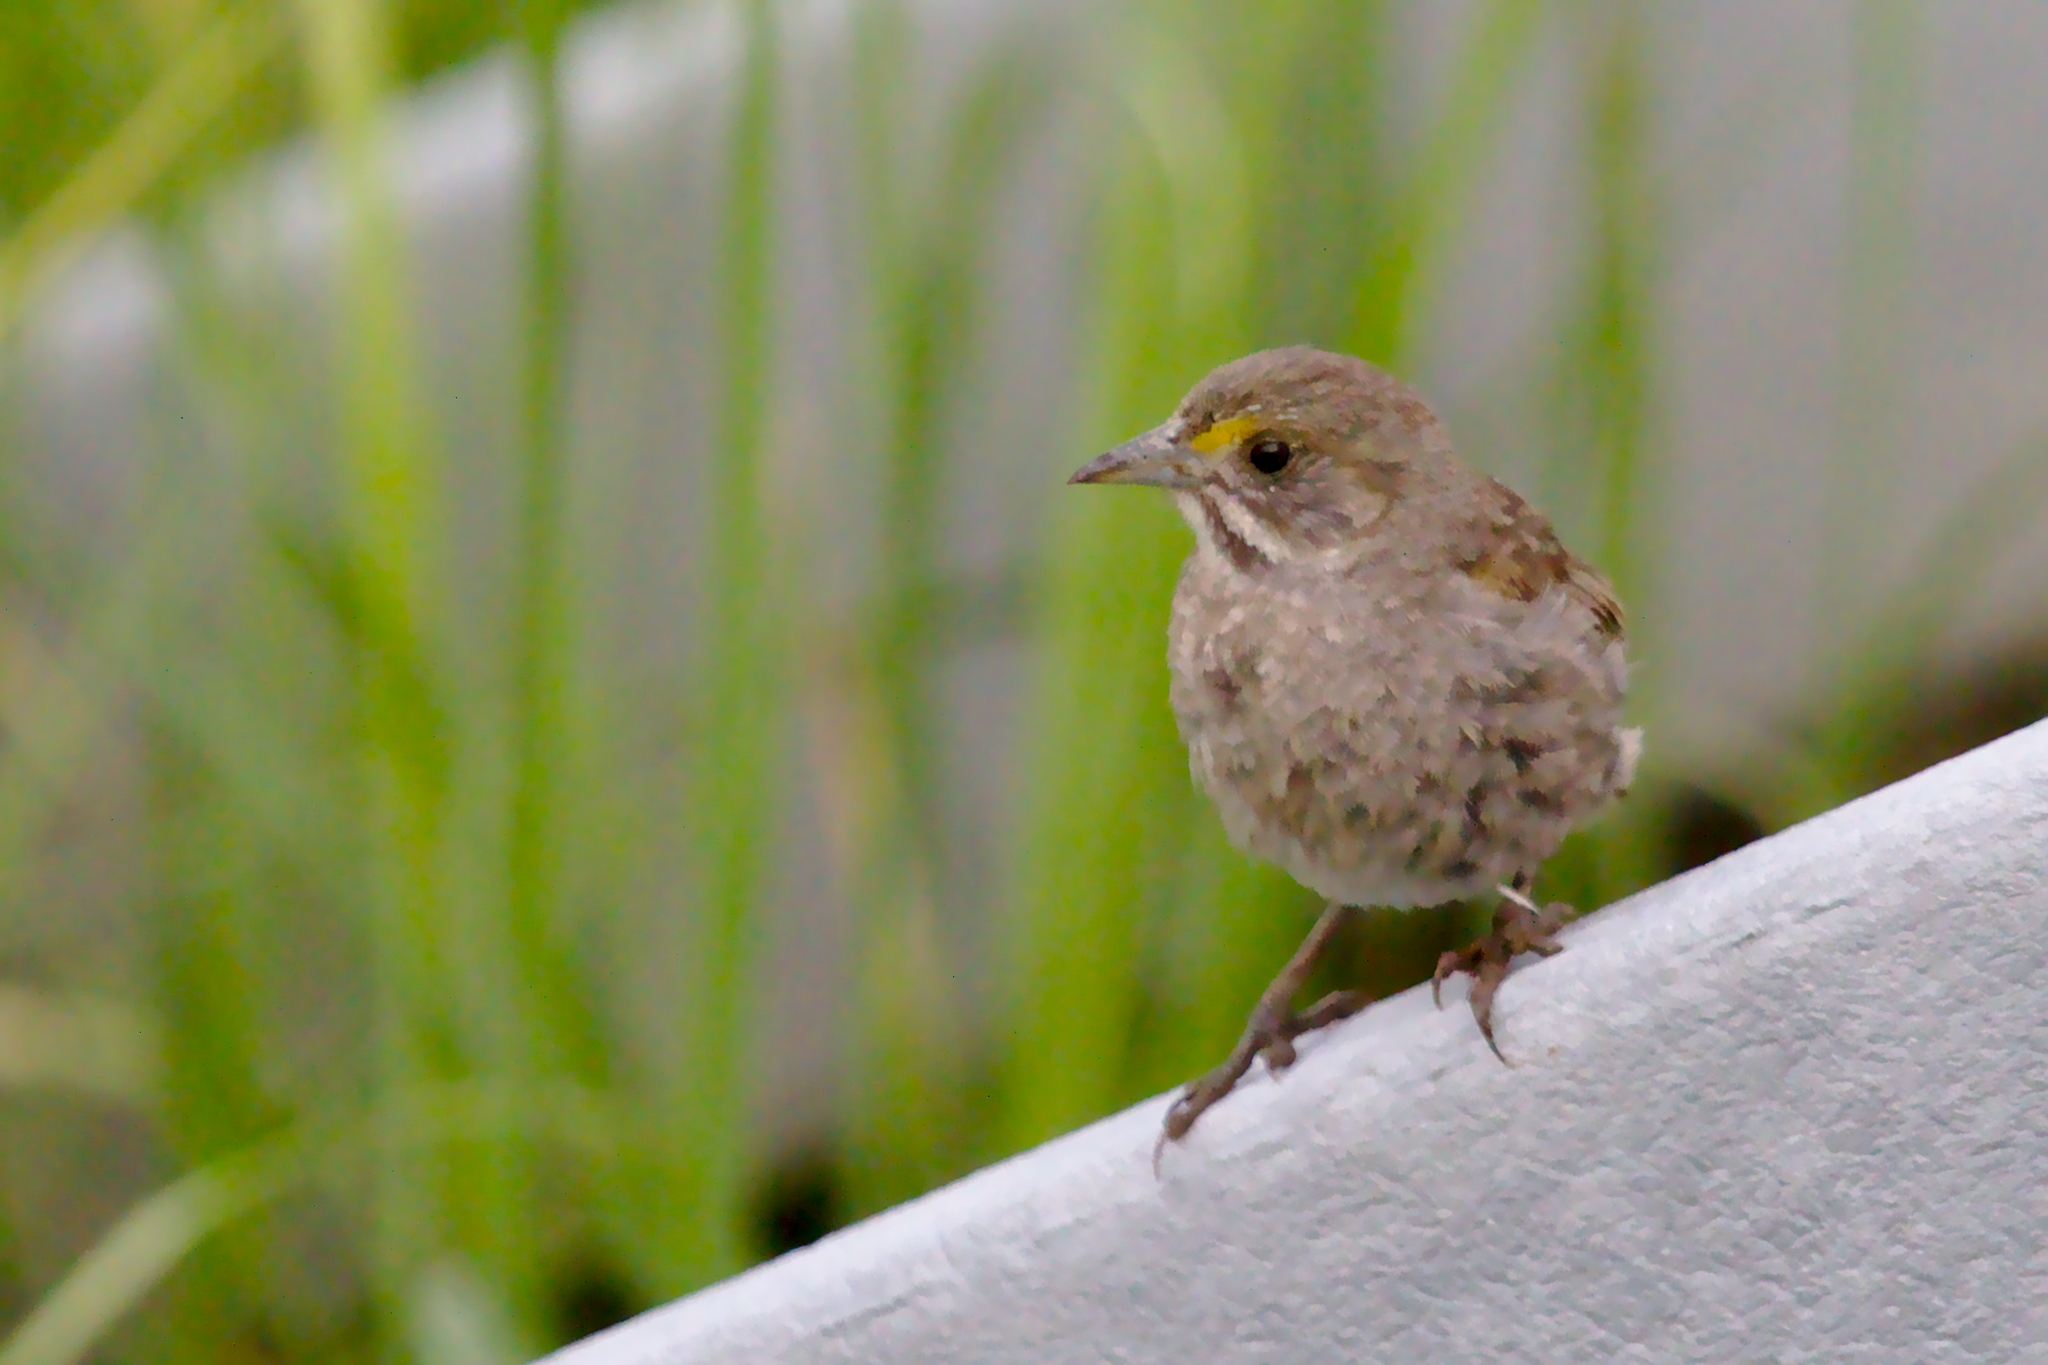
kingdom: Animalia
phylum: Chordata
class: Aves
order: Passeriformes
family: Passerellidae
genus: Ammospiza
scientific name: Ammospiza maritima
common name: Seaside sparrow
